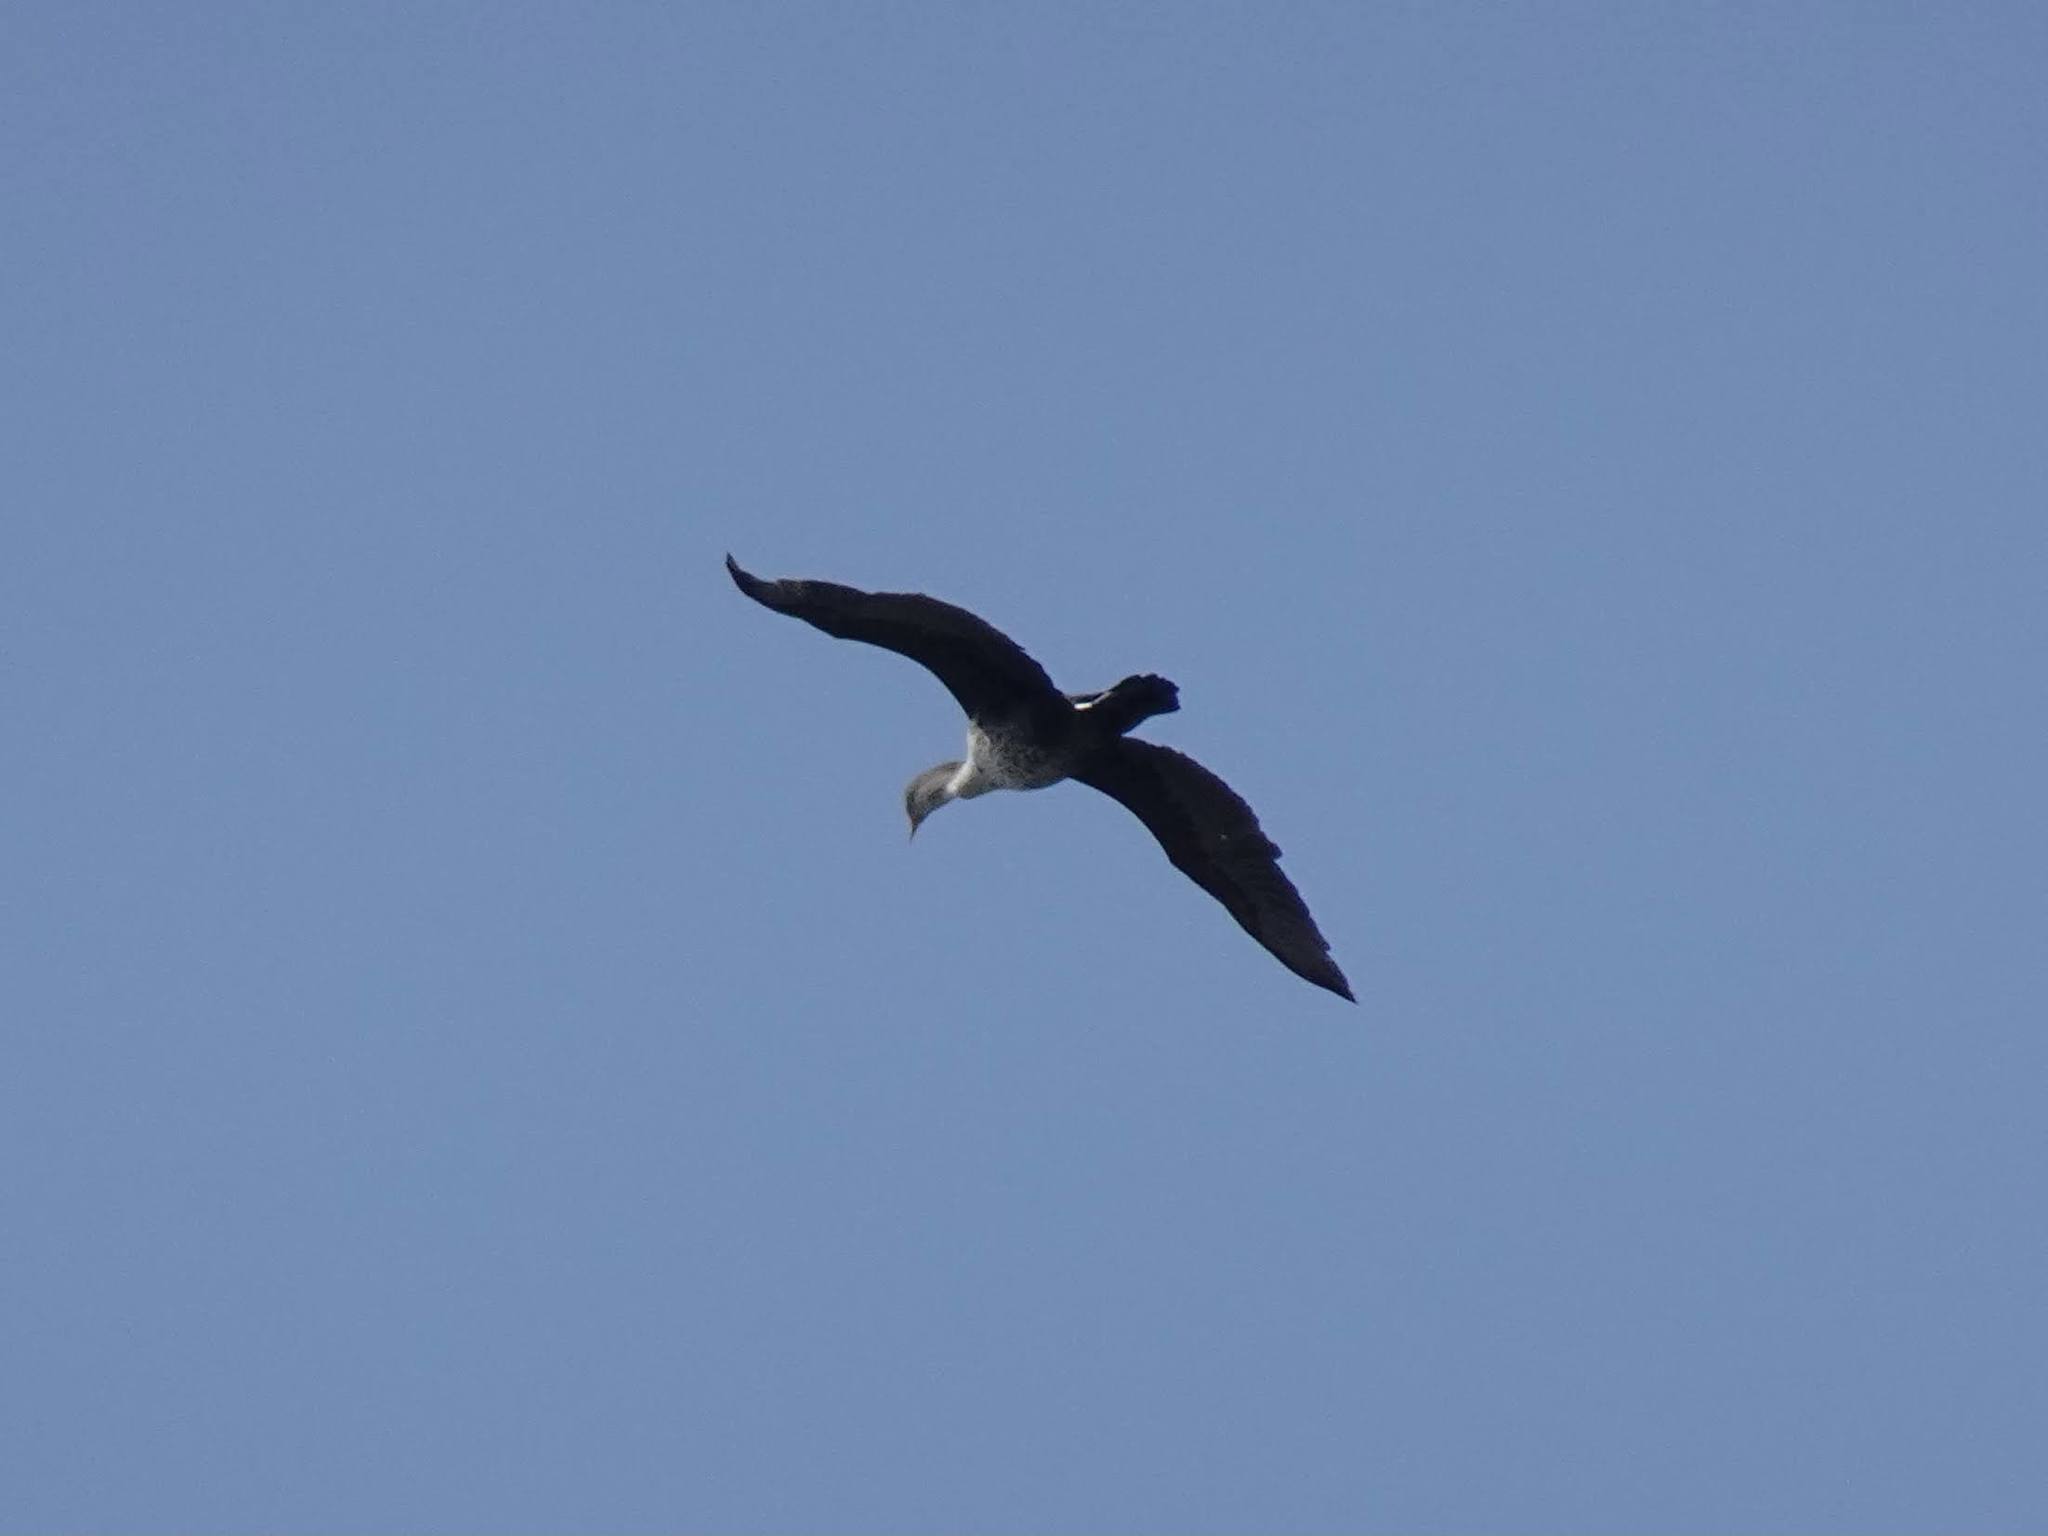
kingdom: Animalia
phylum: Chordata
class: Aves
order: Suliformes
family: Phalacrocoracidae
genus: Phalacrocorax
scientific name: Phalacrocorax auritus
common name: Double-crested cormorant
